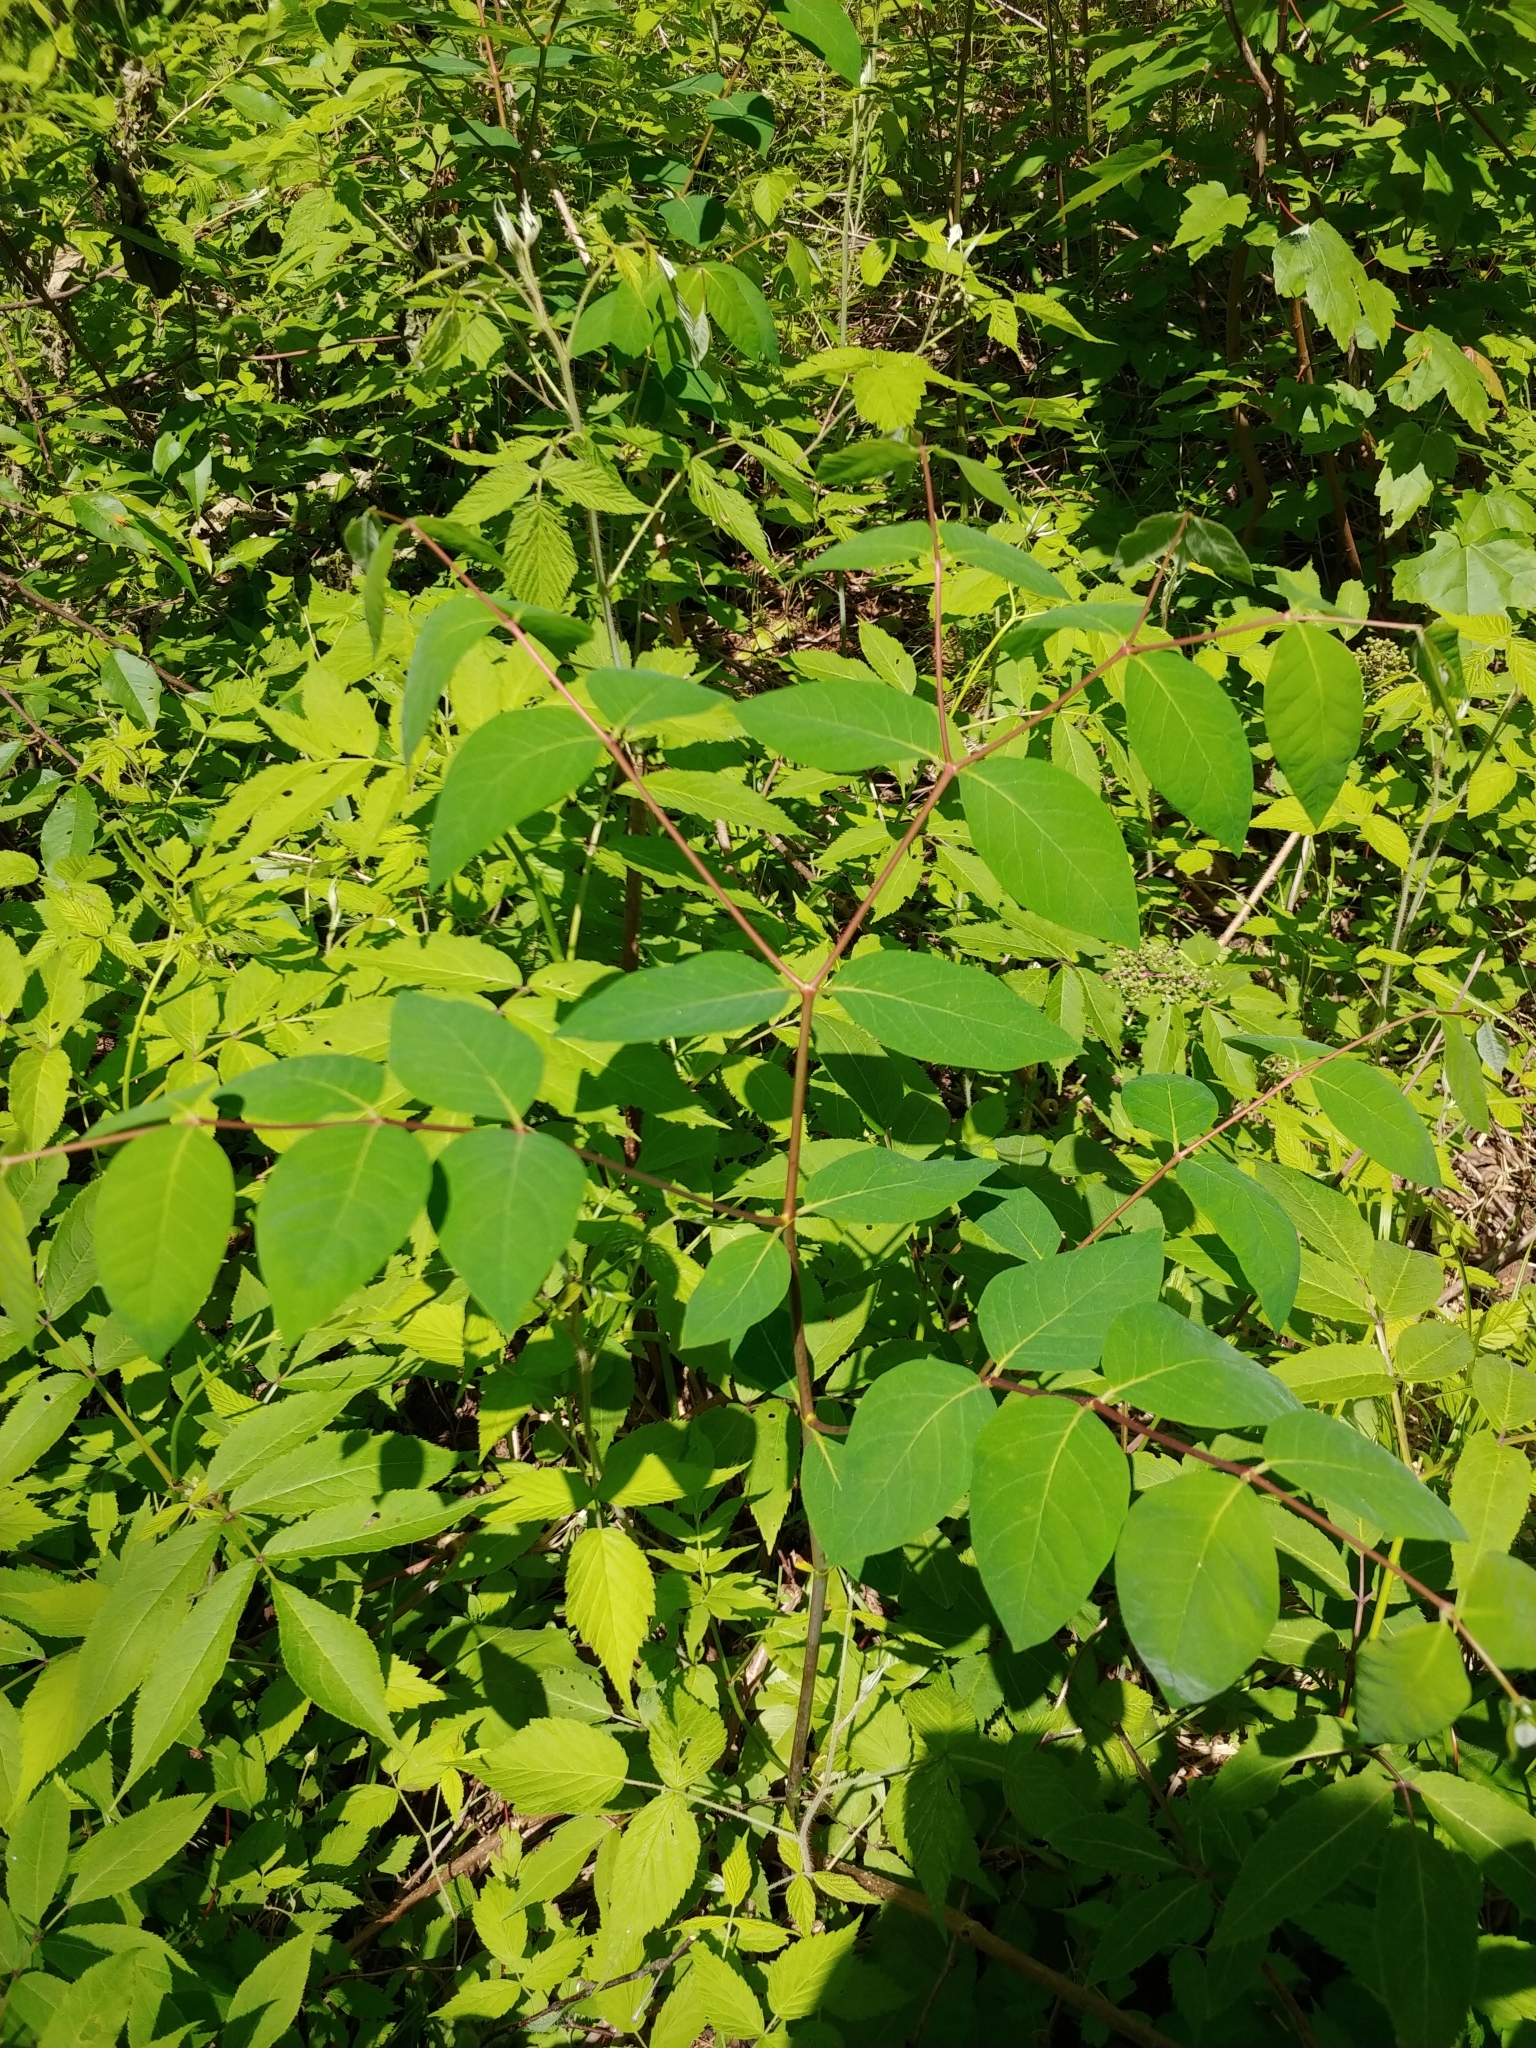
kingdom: Plantae
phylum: Tracheophyta
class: Magnoliopsida
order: Gentianales
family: Apocynaceae
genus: Apocynum
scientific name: Apocynum androsaemifolium
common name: Spreading dogbane
